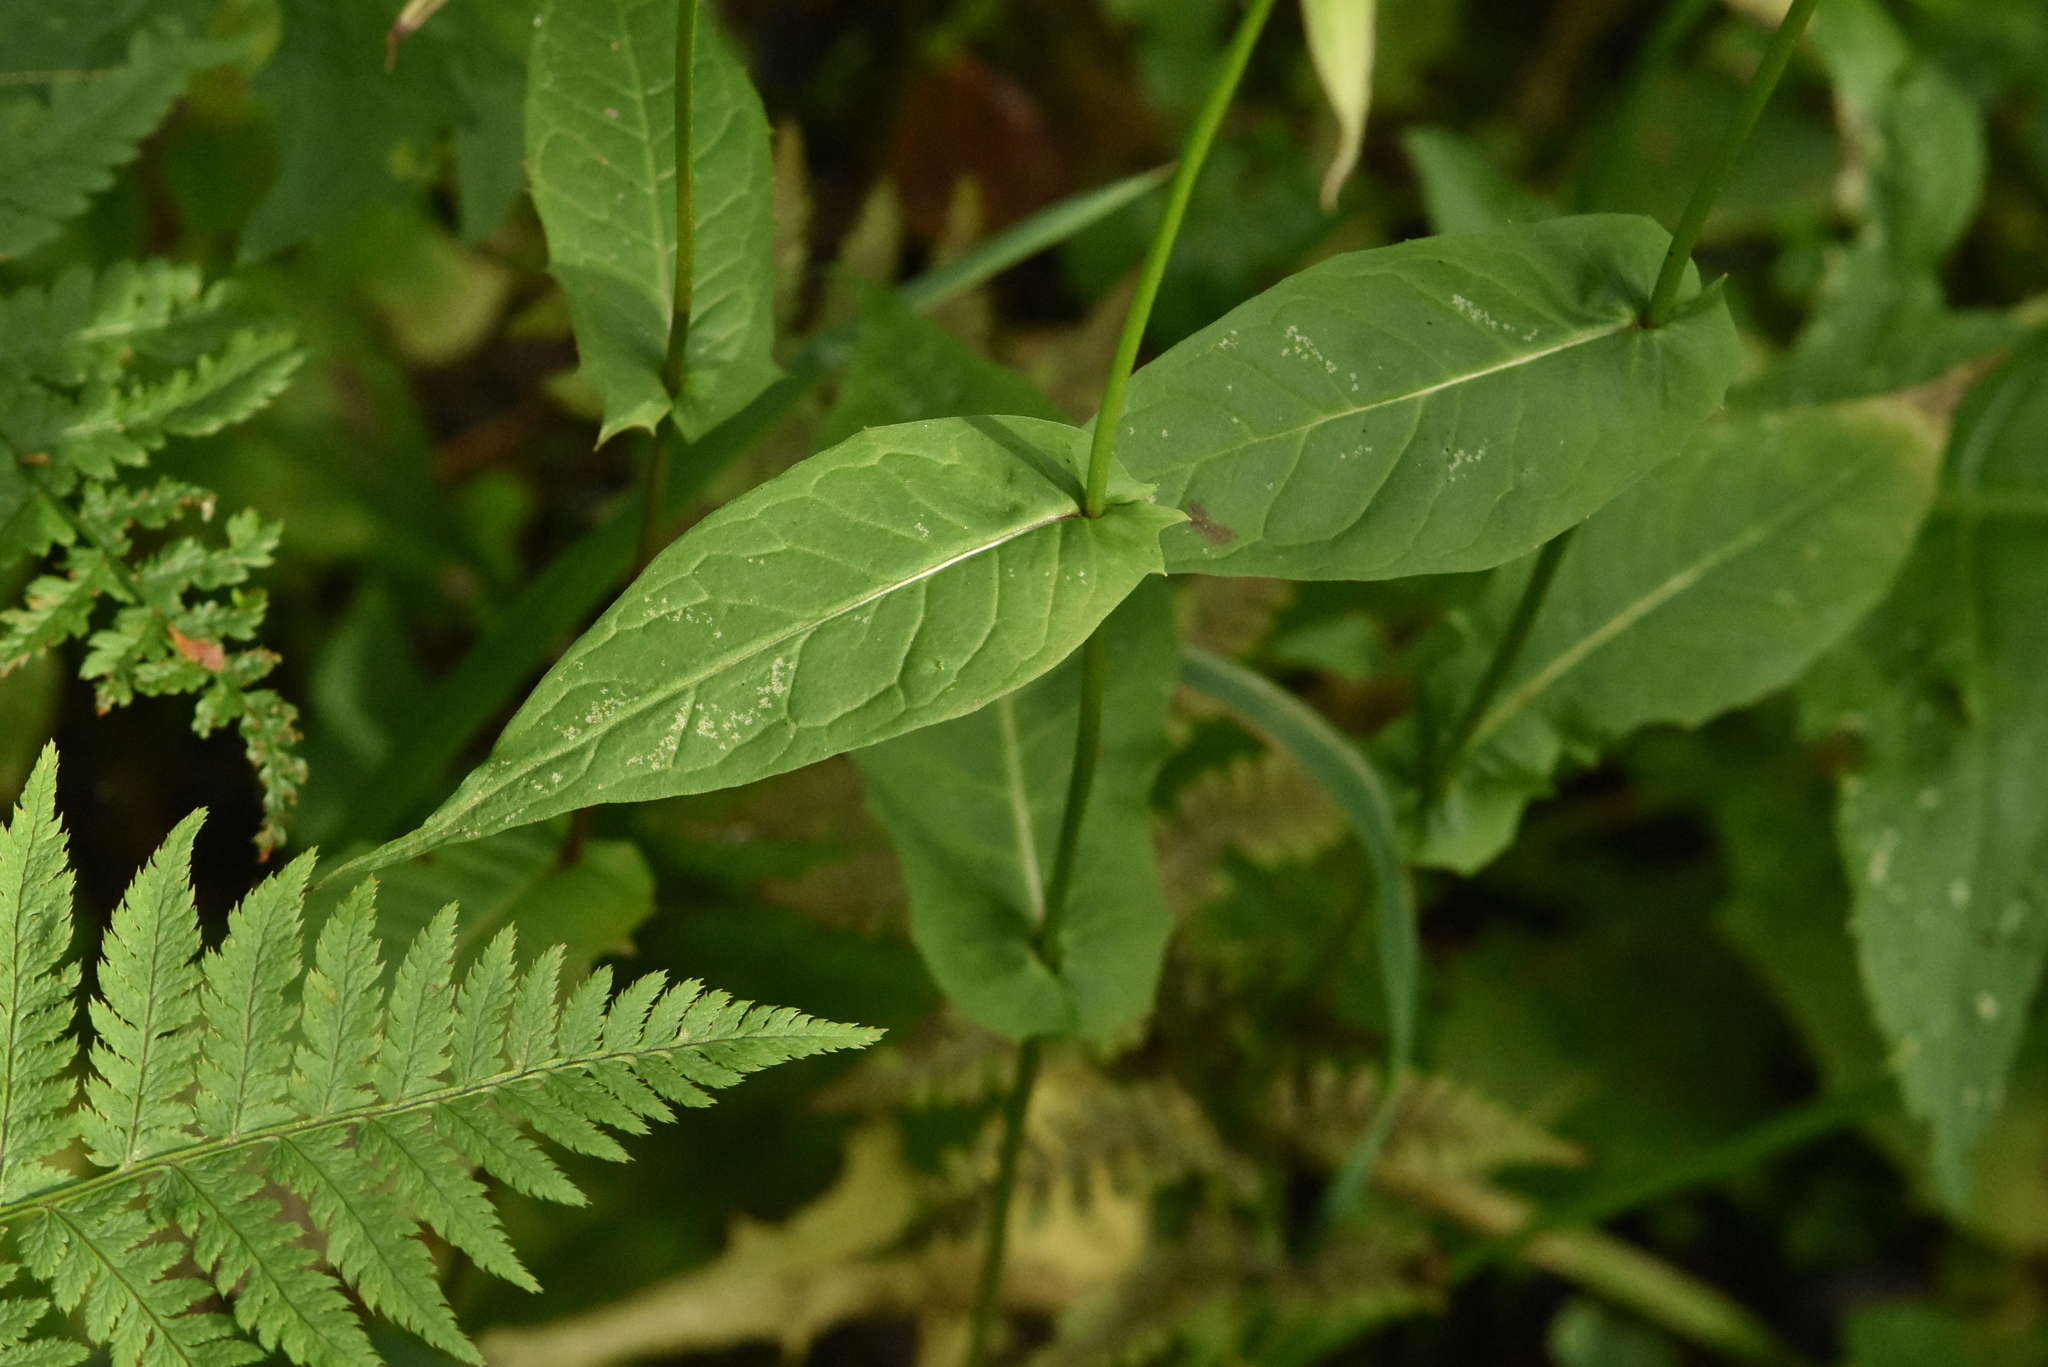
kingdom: Plantae
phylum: Tracheophyta
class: Magnoliopsida
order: Asterales
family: Asteraceae
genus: Crepis
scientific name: Crepis paludosa
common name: Marsh hawk's-beard
